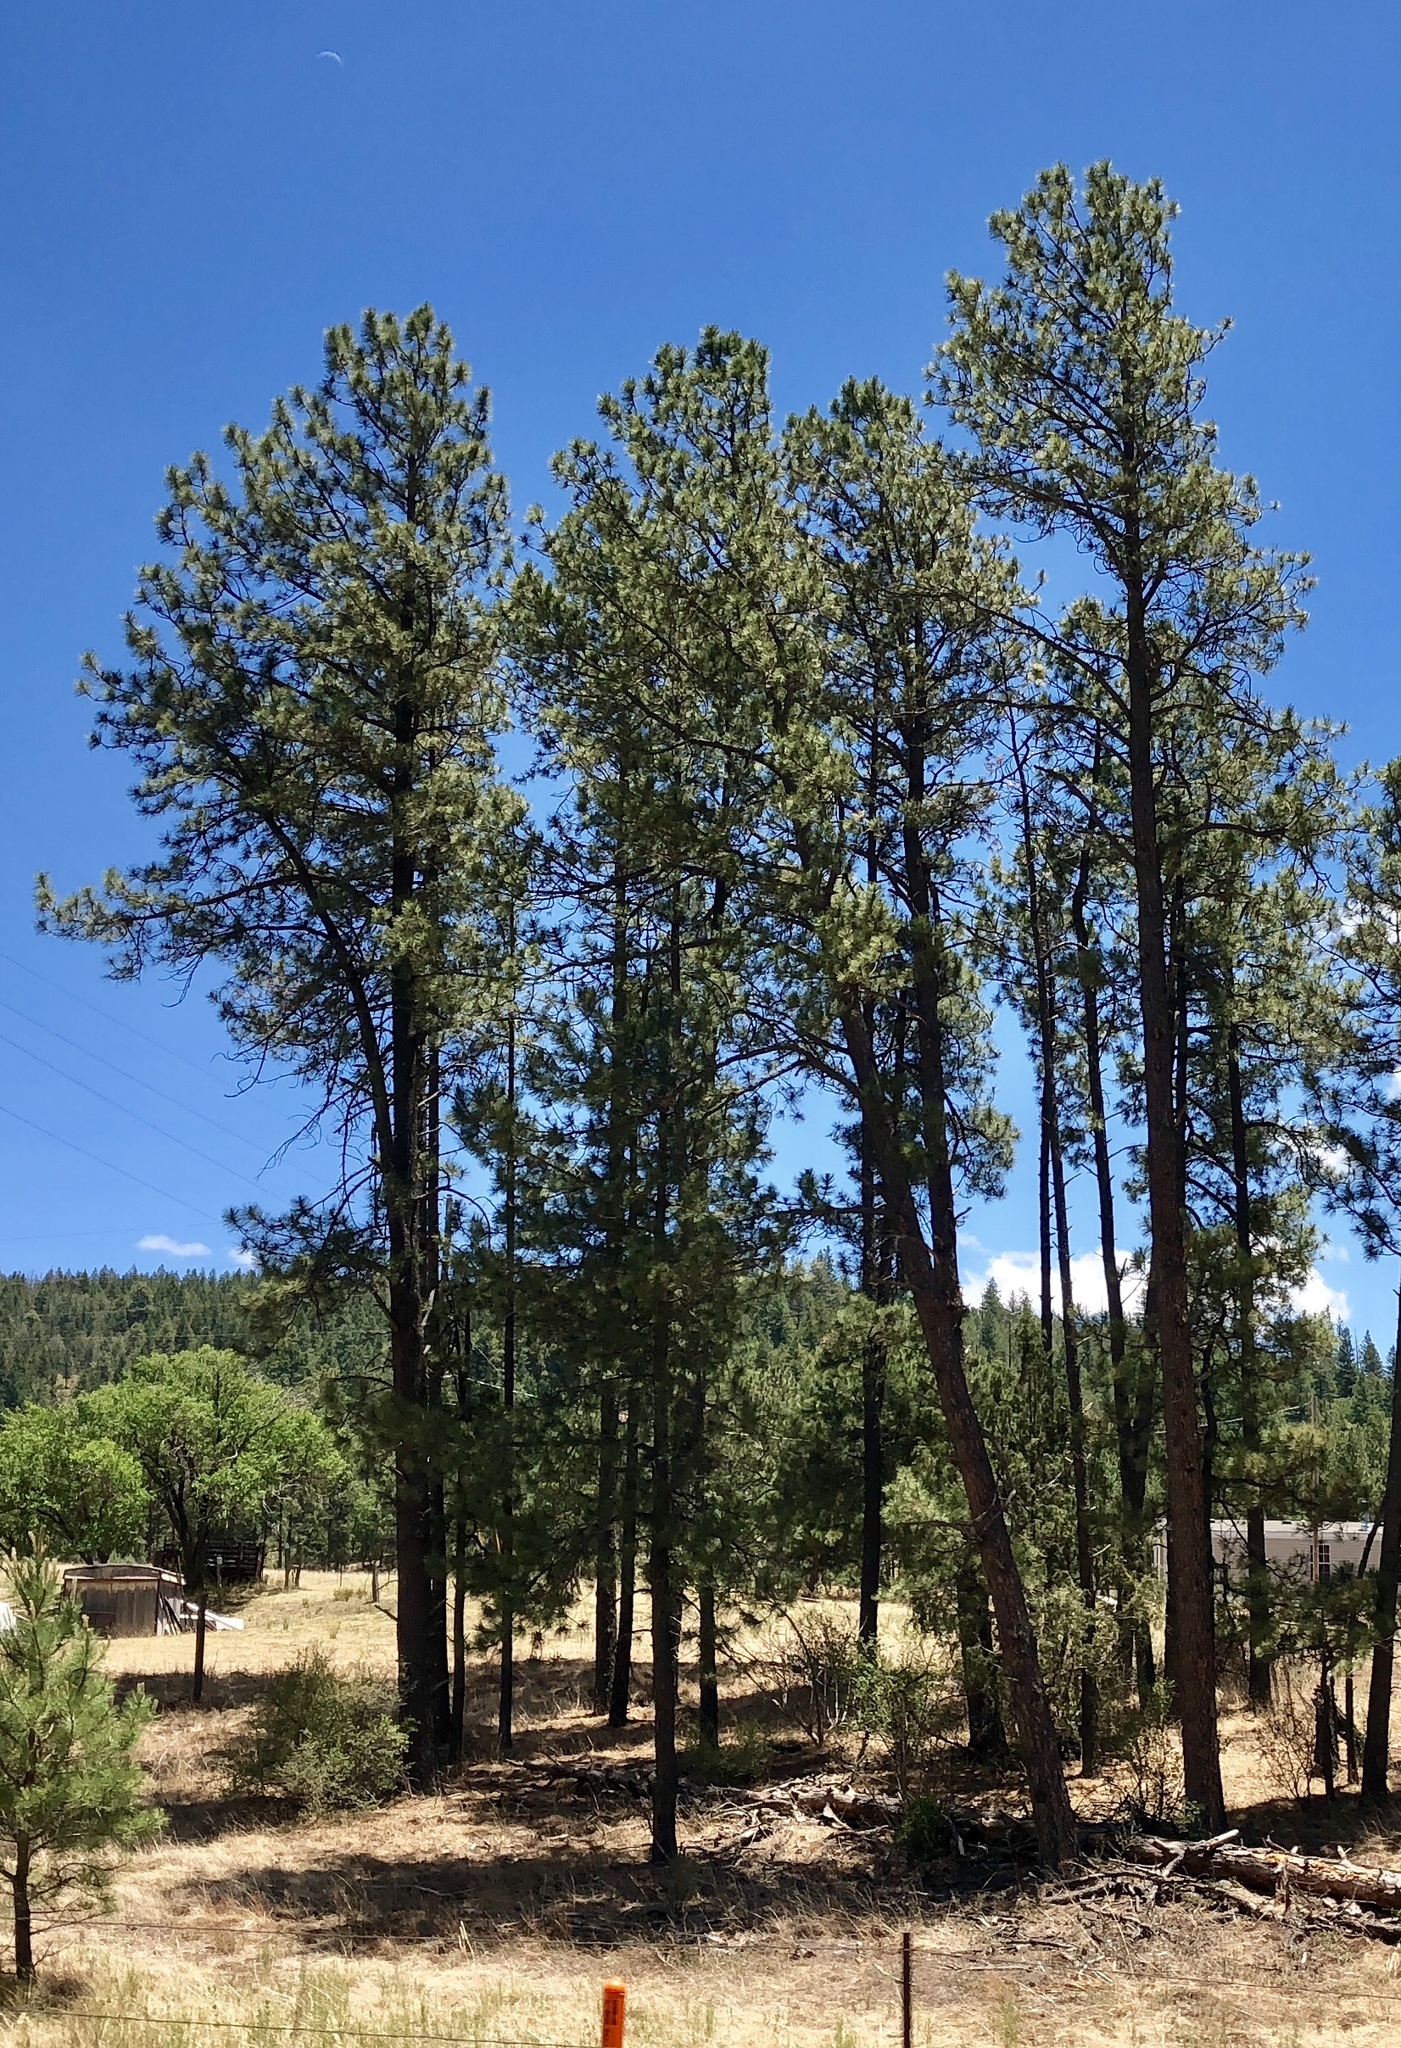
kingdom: Plantae
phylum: Tracheophyta
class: Pinopsida
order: Pinales
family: Pinaceae
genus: Pinus
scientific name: Pinus ponderosa
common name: Western yellow-pine
